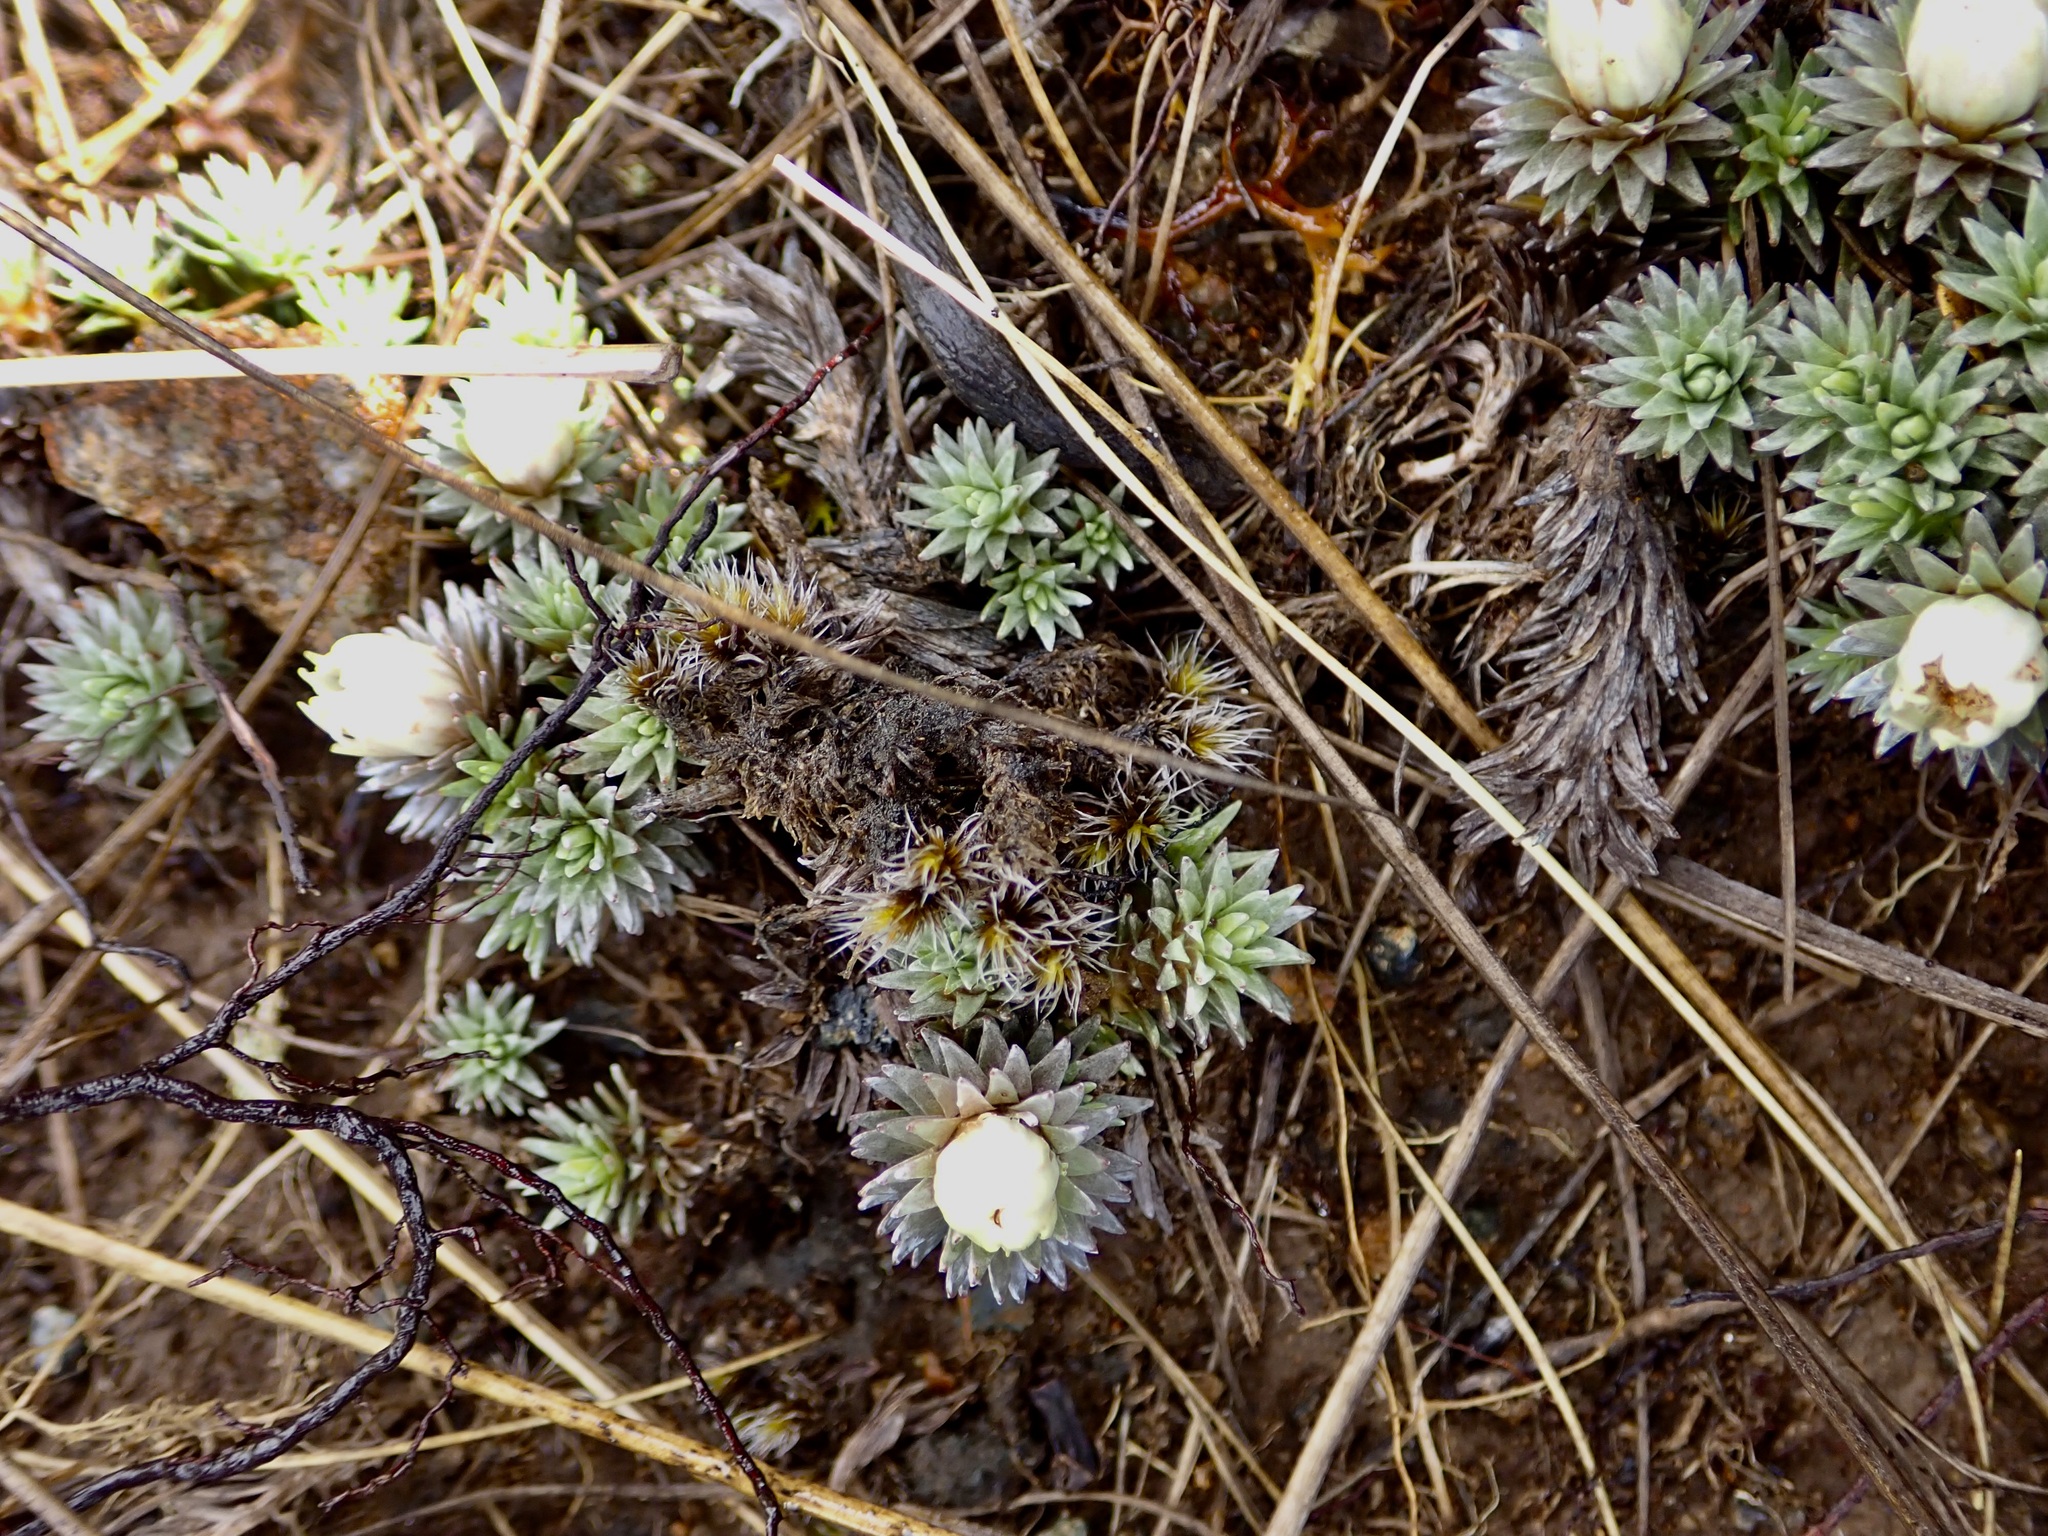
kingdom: Plantae
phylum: Tracheophyta
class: Magnoliopsida
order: Asterales
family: Asteraceae
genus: Raoulia
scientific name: Raoulia grandiflora
